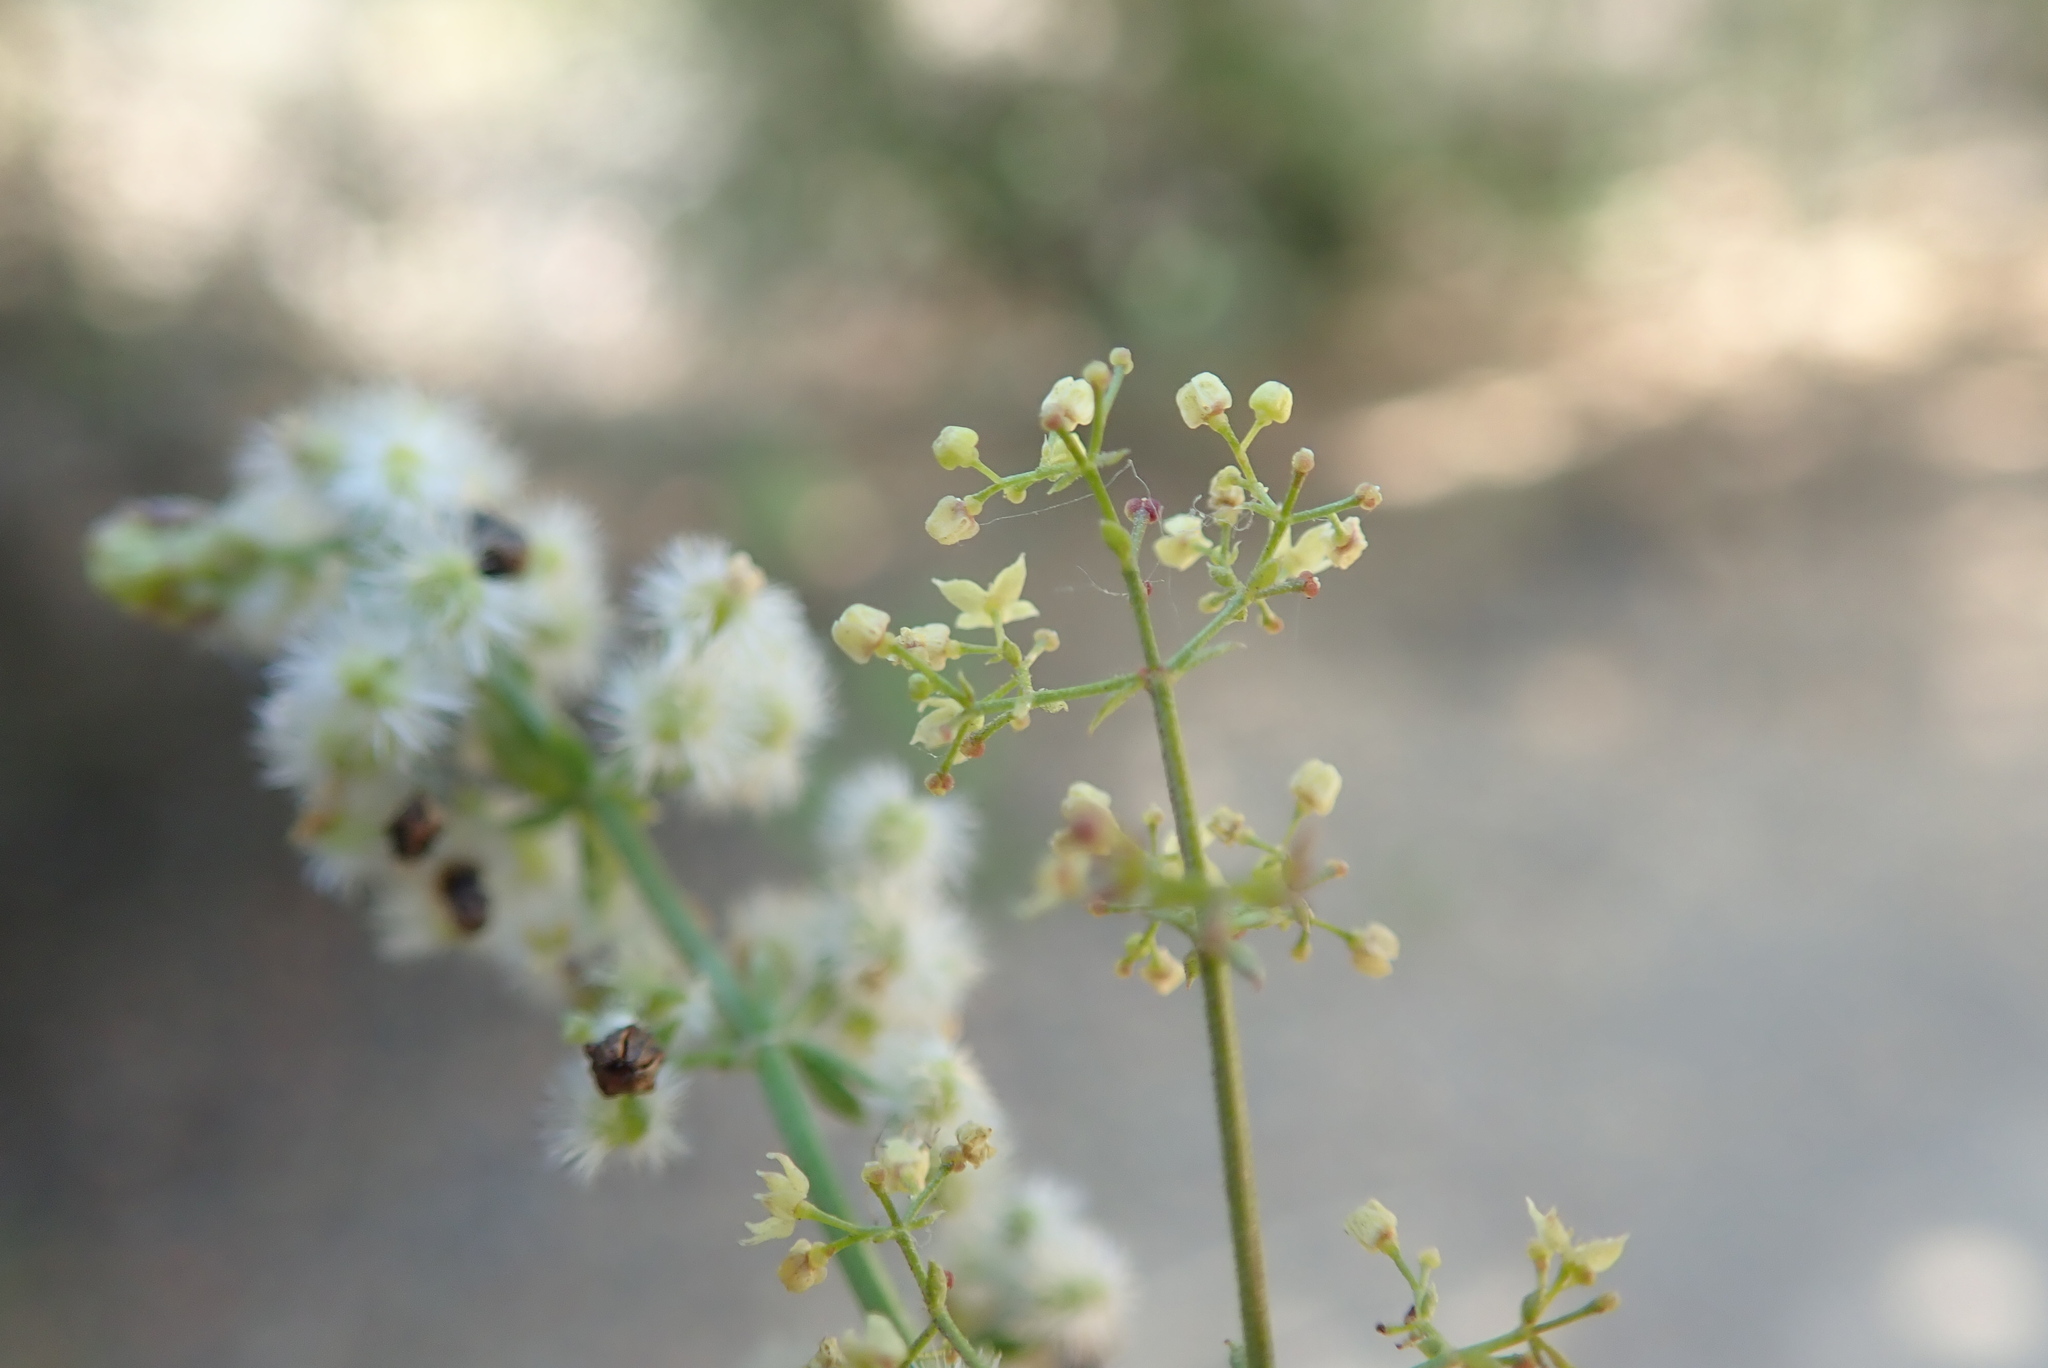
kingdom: Plantae
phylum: Tracheophyta
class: Magnoliopsida
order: Gentianales
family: Rubiaceae
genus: Galium
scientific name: Galium angustifolium
